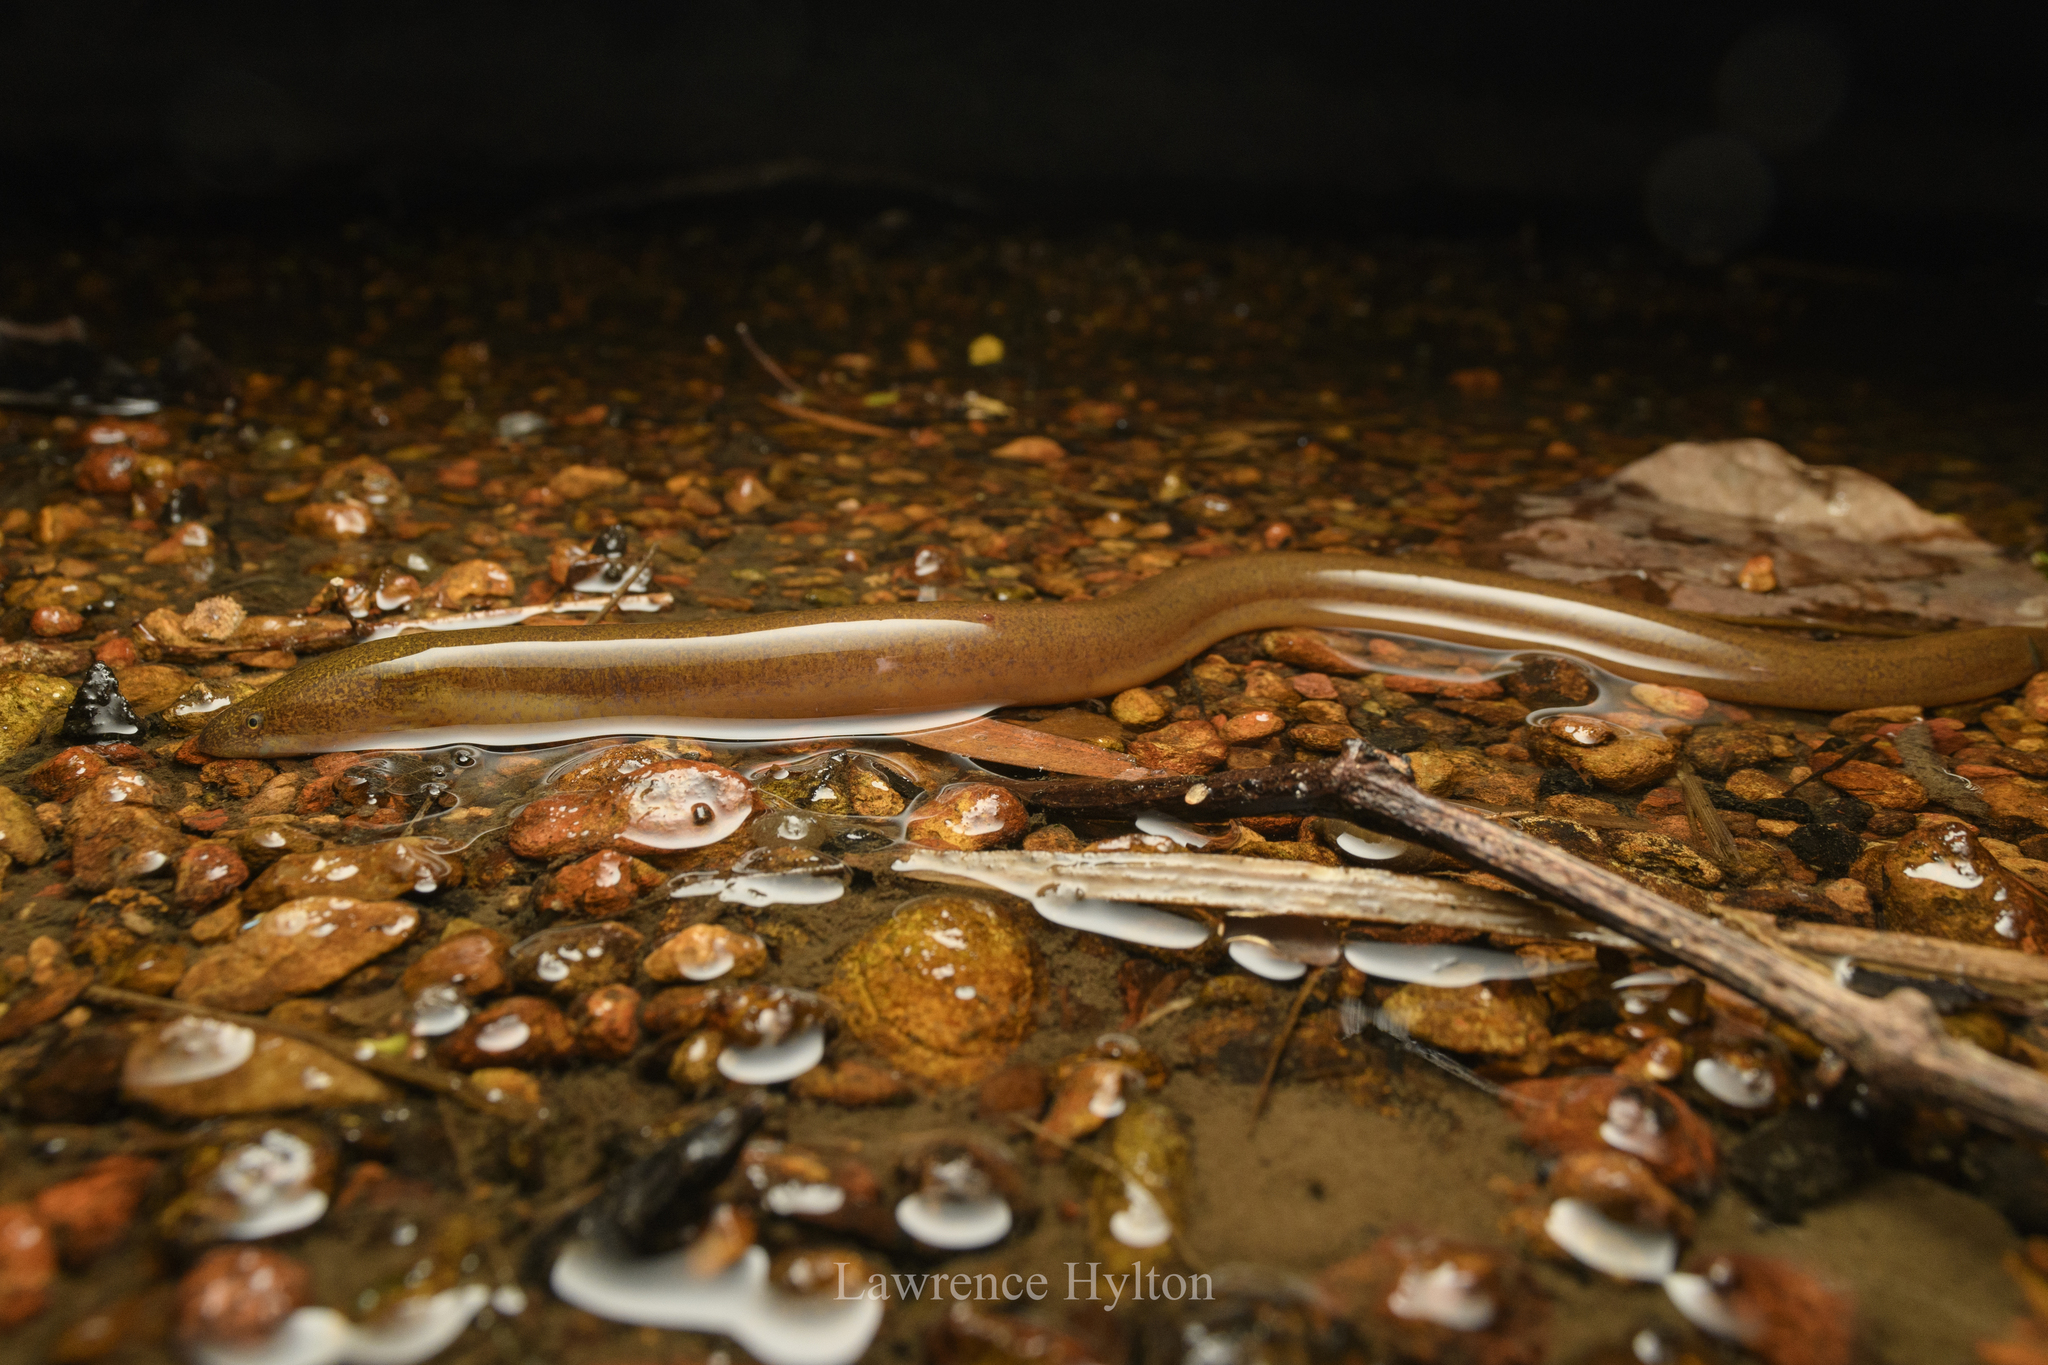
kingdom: Animalia
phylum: Chordata
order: Synbranchiformes
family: Synbranchidae
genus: Monopterus
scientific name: Monopterus albus
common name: Asian swamp eel
